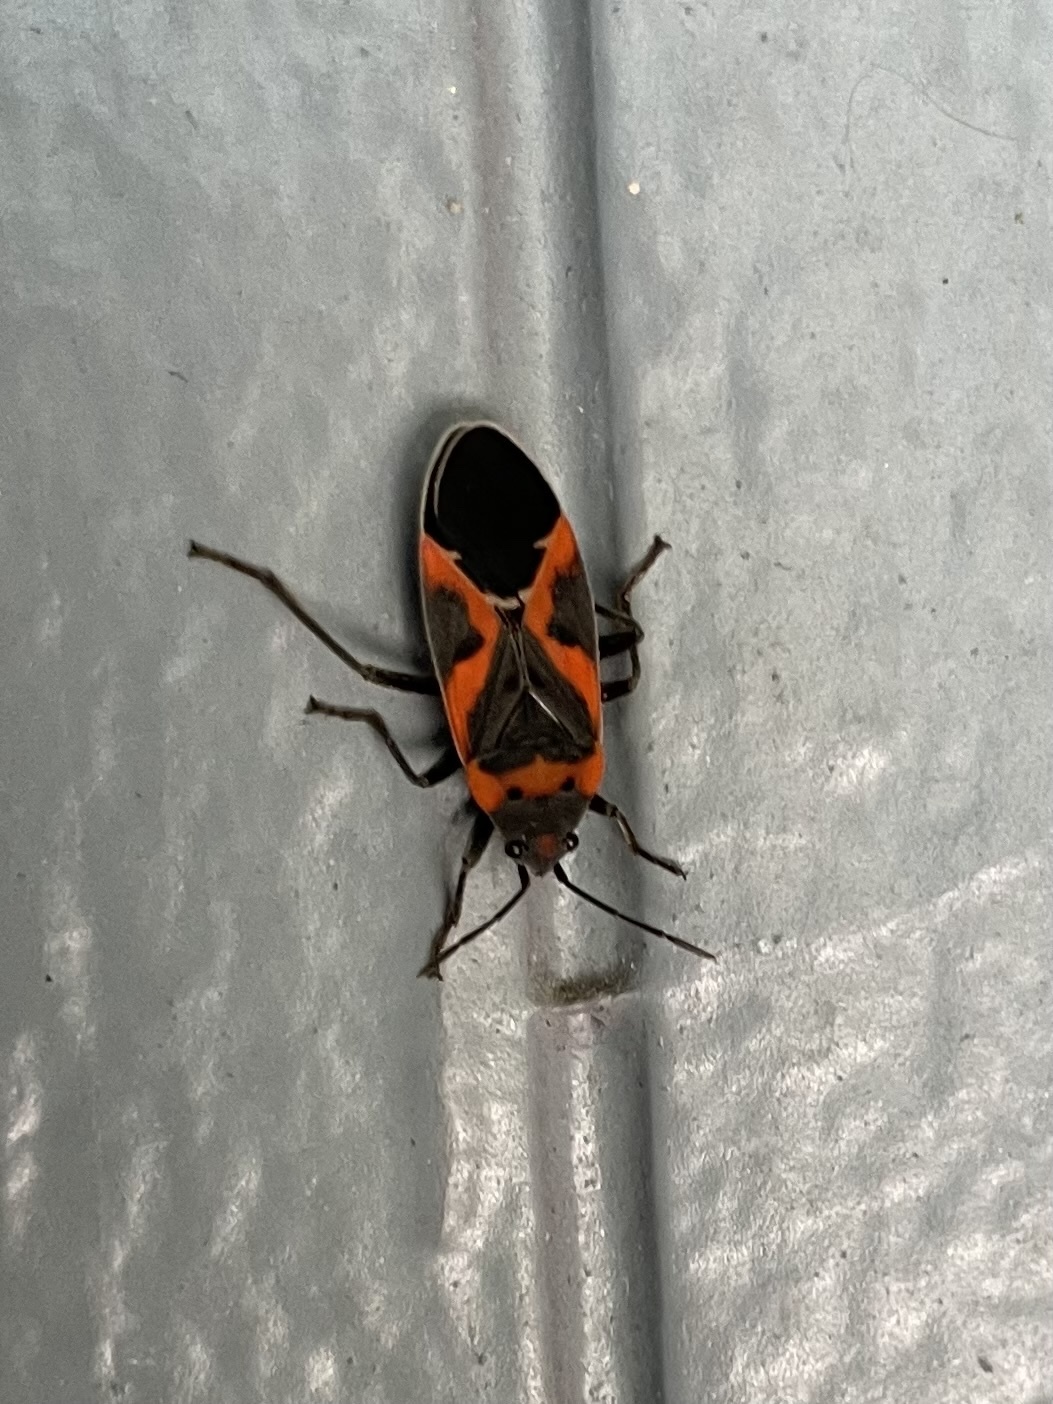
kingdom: Animalia
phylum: Arthropoda
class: Insecta
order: Hemiptera
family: Lygaeidae
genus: Lygaeus
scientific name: Lygaeus kalmii
